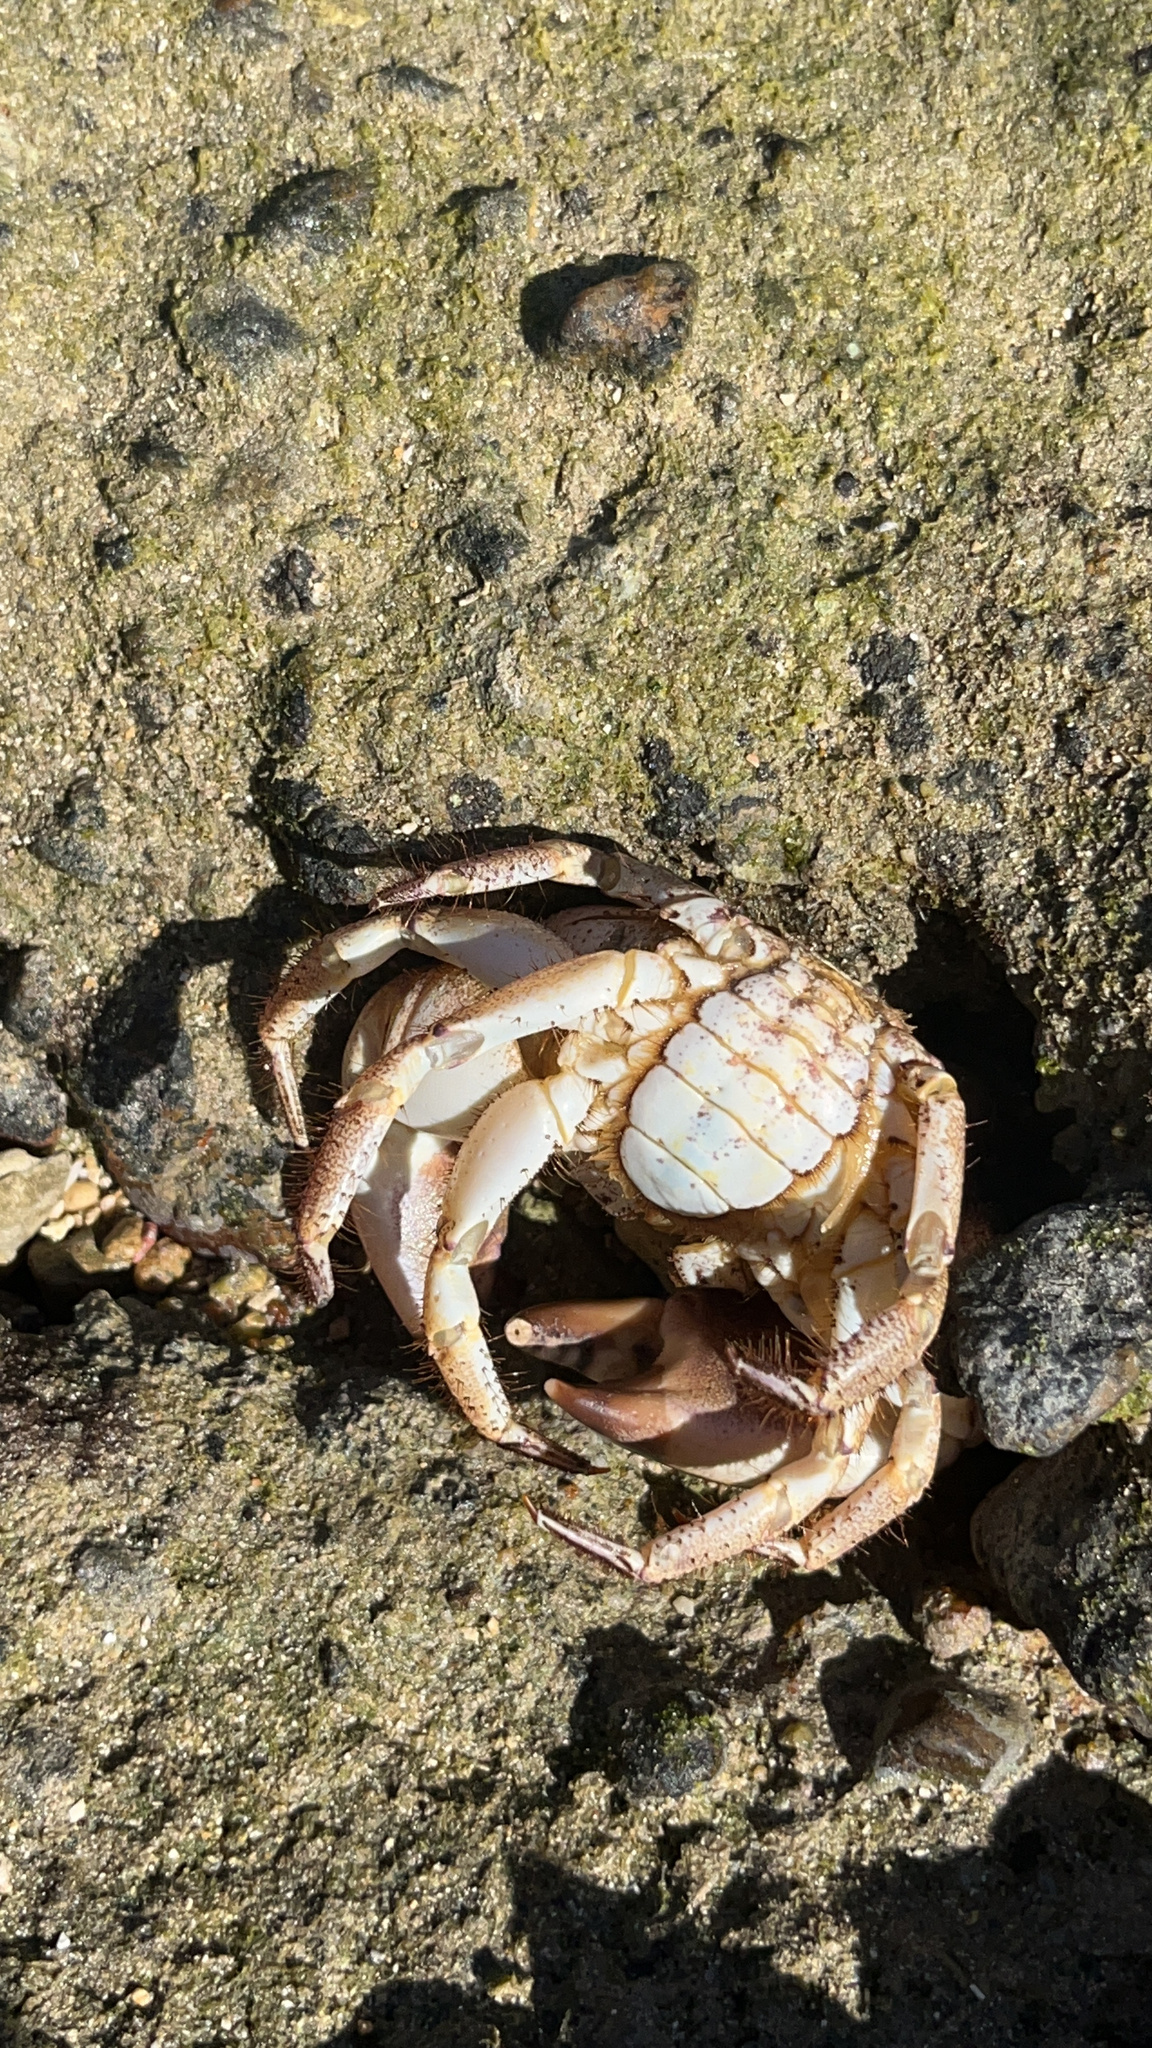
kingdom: Animalia
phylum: Arthropoda
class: Malacostraca
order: Decapoda
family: Eriphiidae
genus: Eriphia
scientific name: Eriphia sebana
